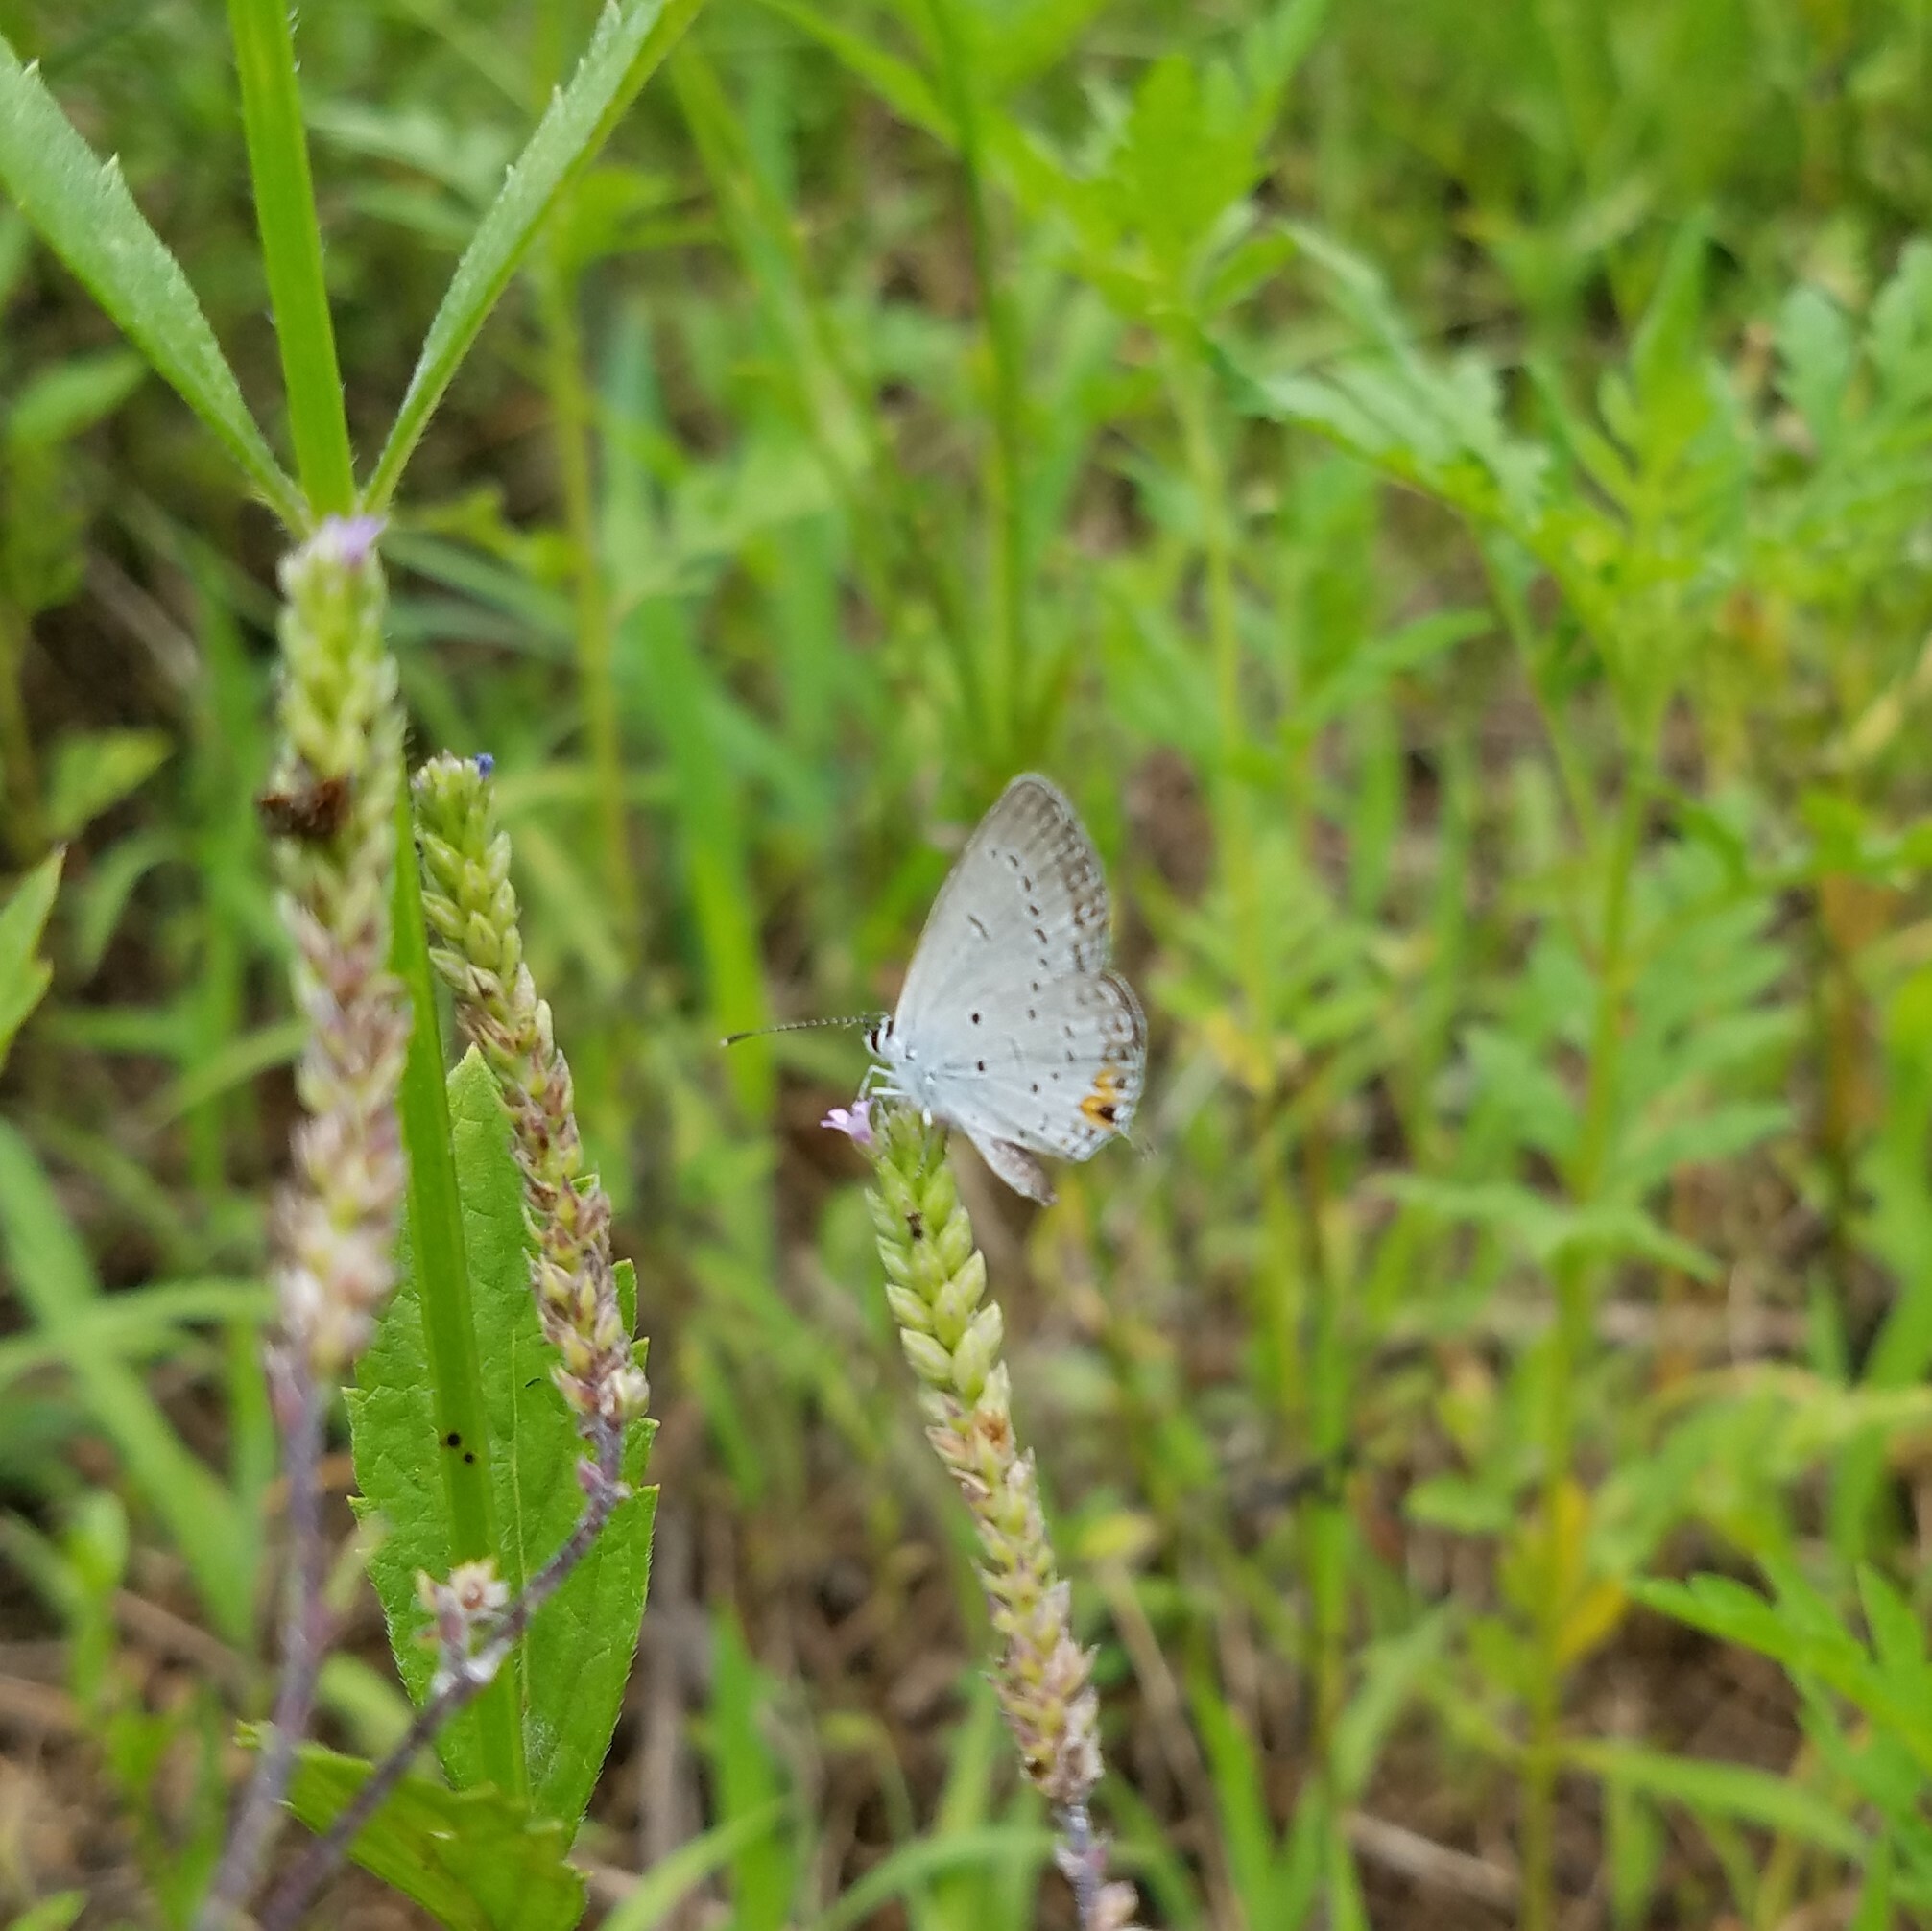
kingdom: Animalia
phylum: Arthropoda
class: Insecta
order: Lepidoptera
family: Lycaenidae
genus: Elkalyce
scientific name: Elkalyce comyntas
